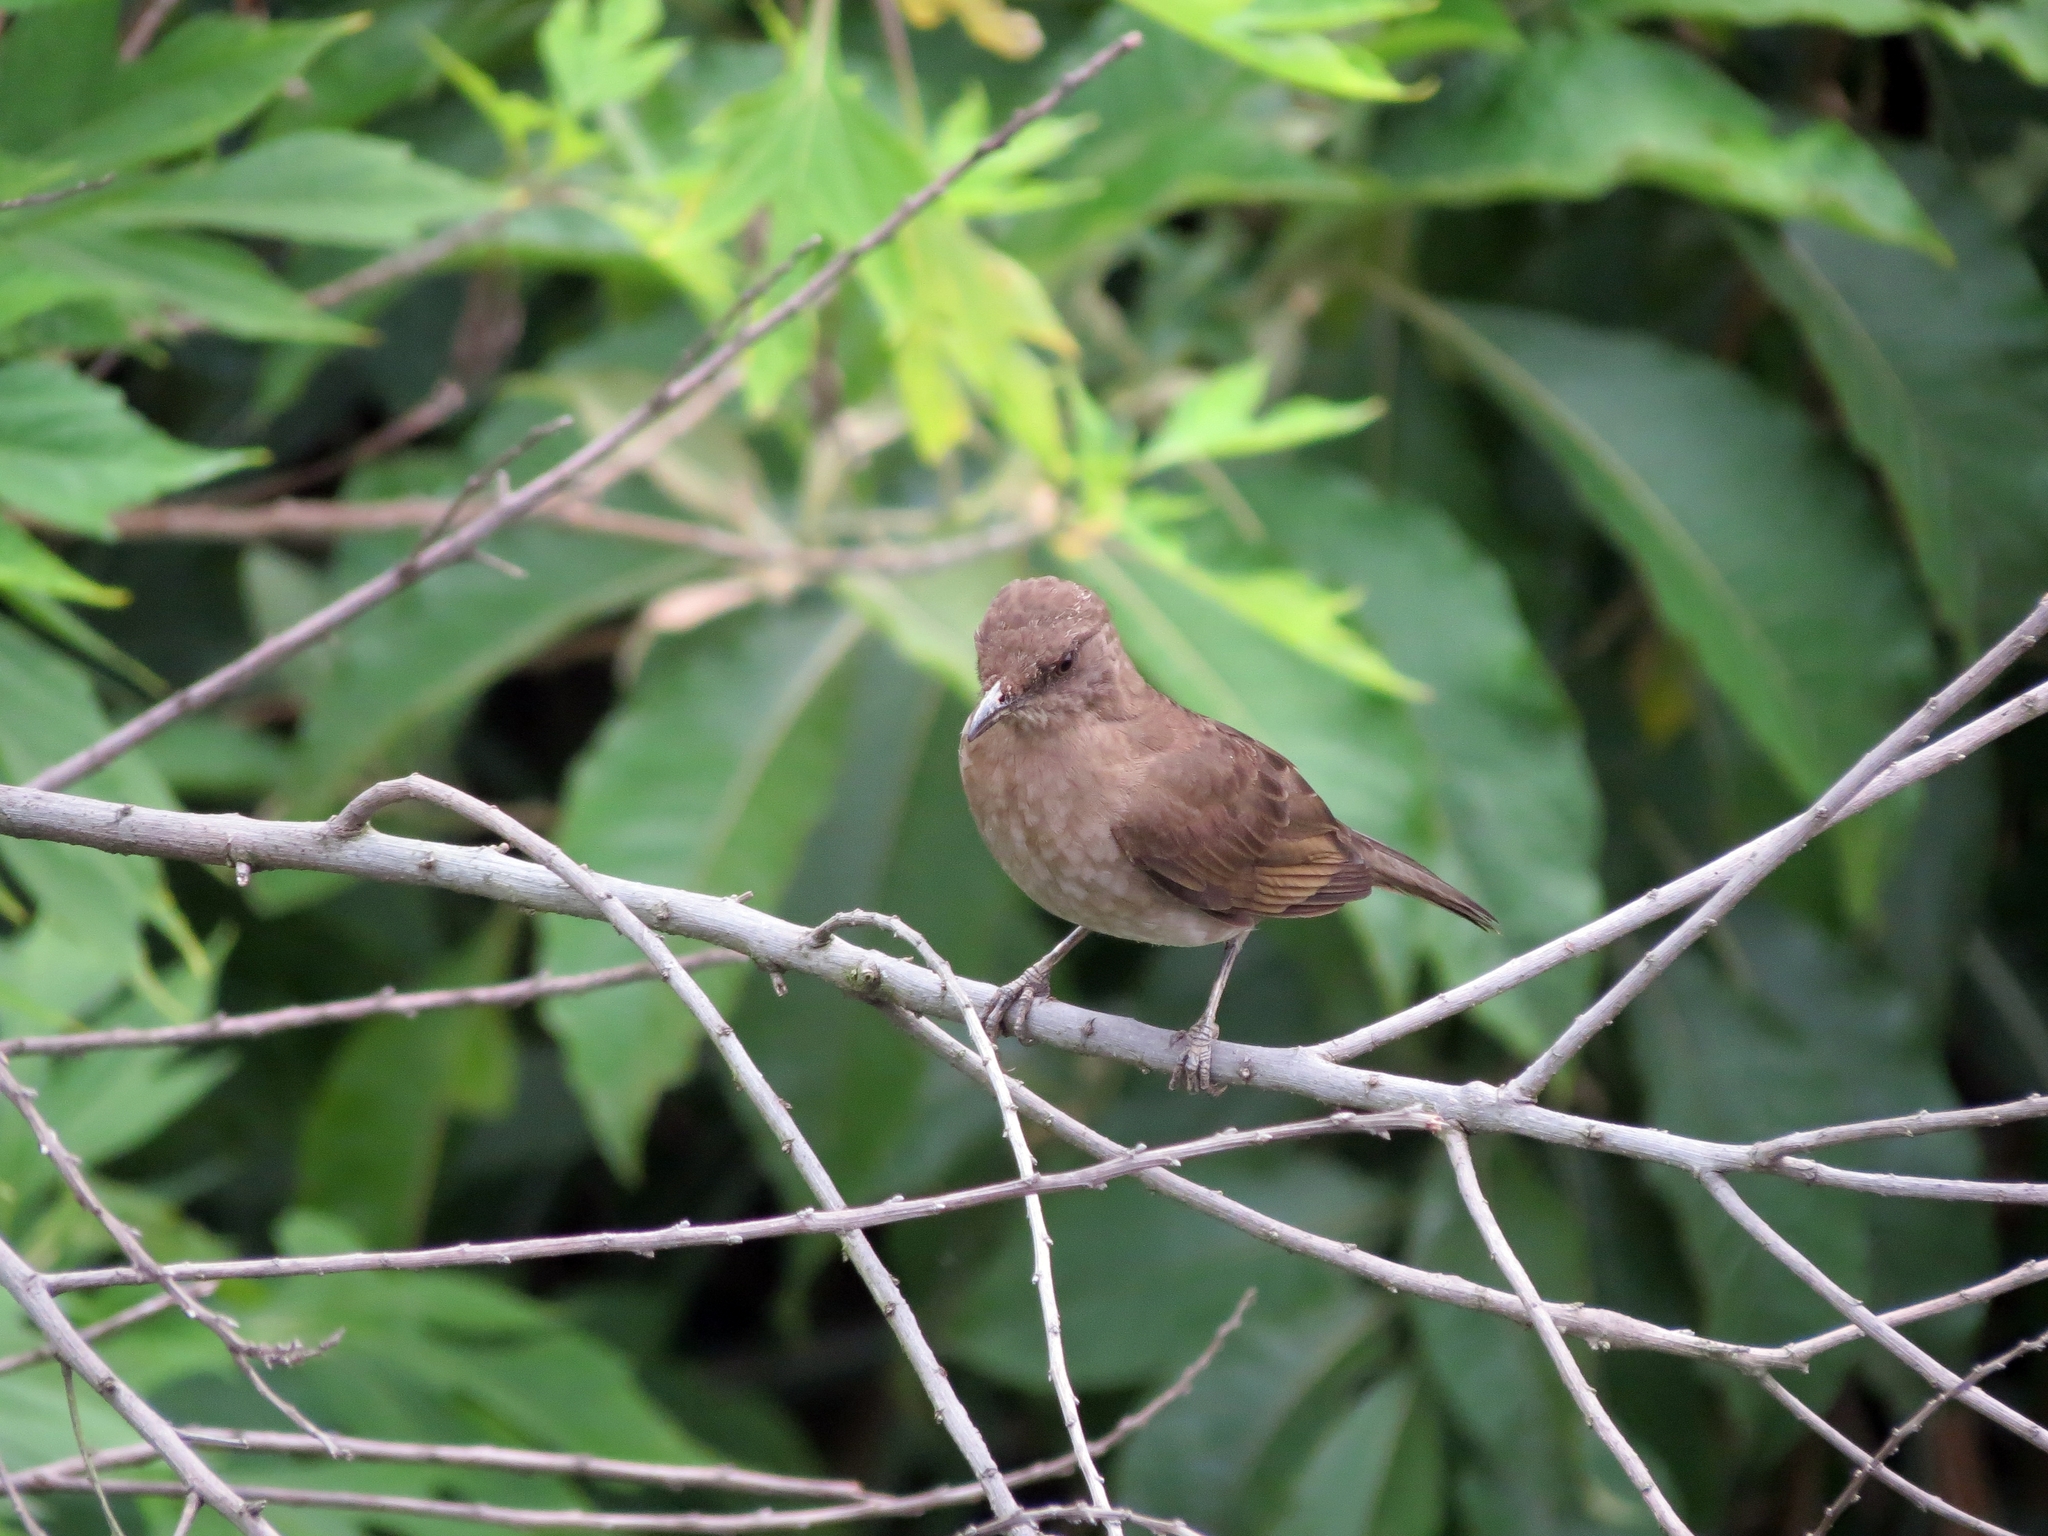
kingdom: Animalia
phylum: Chordata
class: Aves
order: Passeriformes
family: Turdidae
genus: Turdus
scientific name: Turdus grayi
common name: Clay-colored thrush
